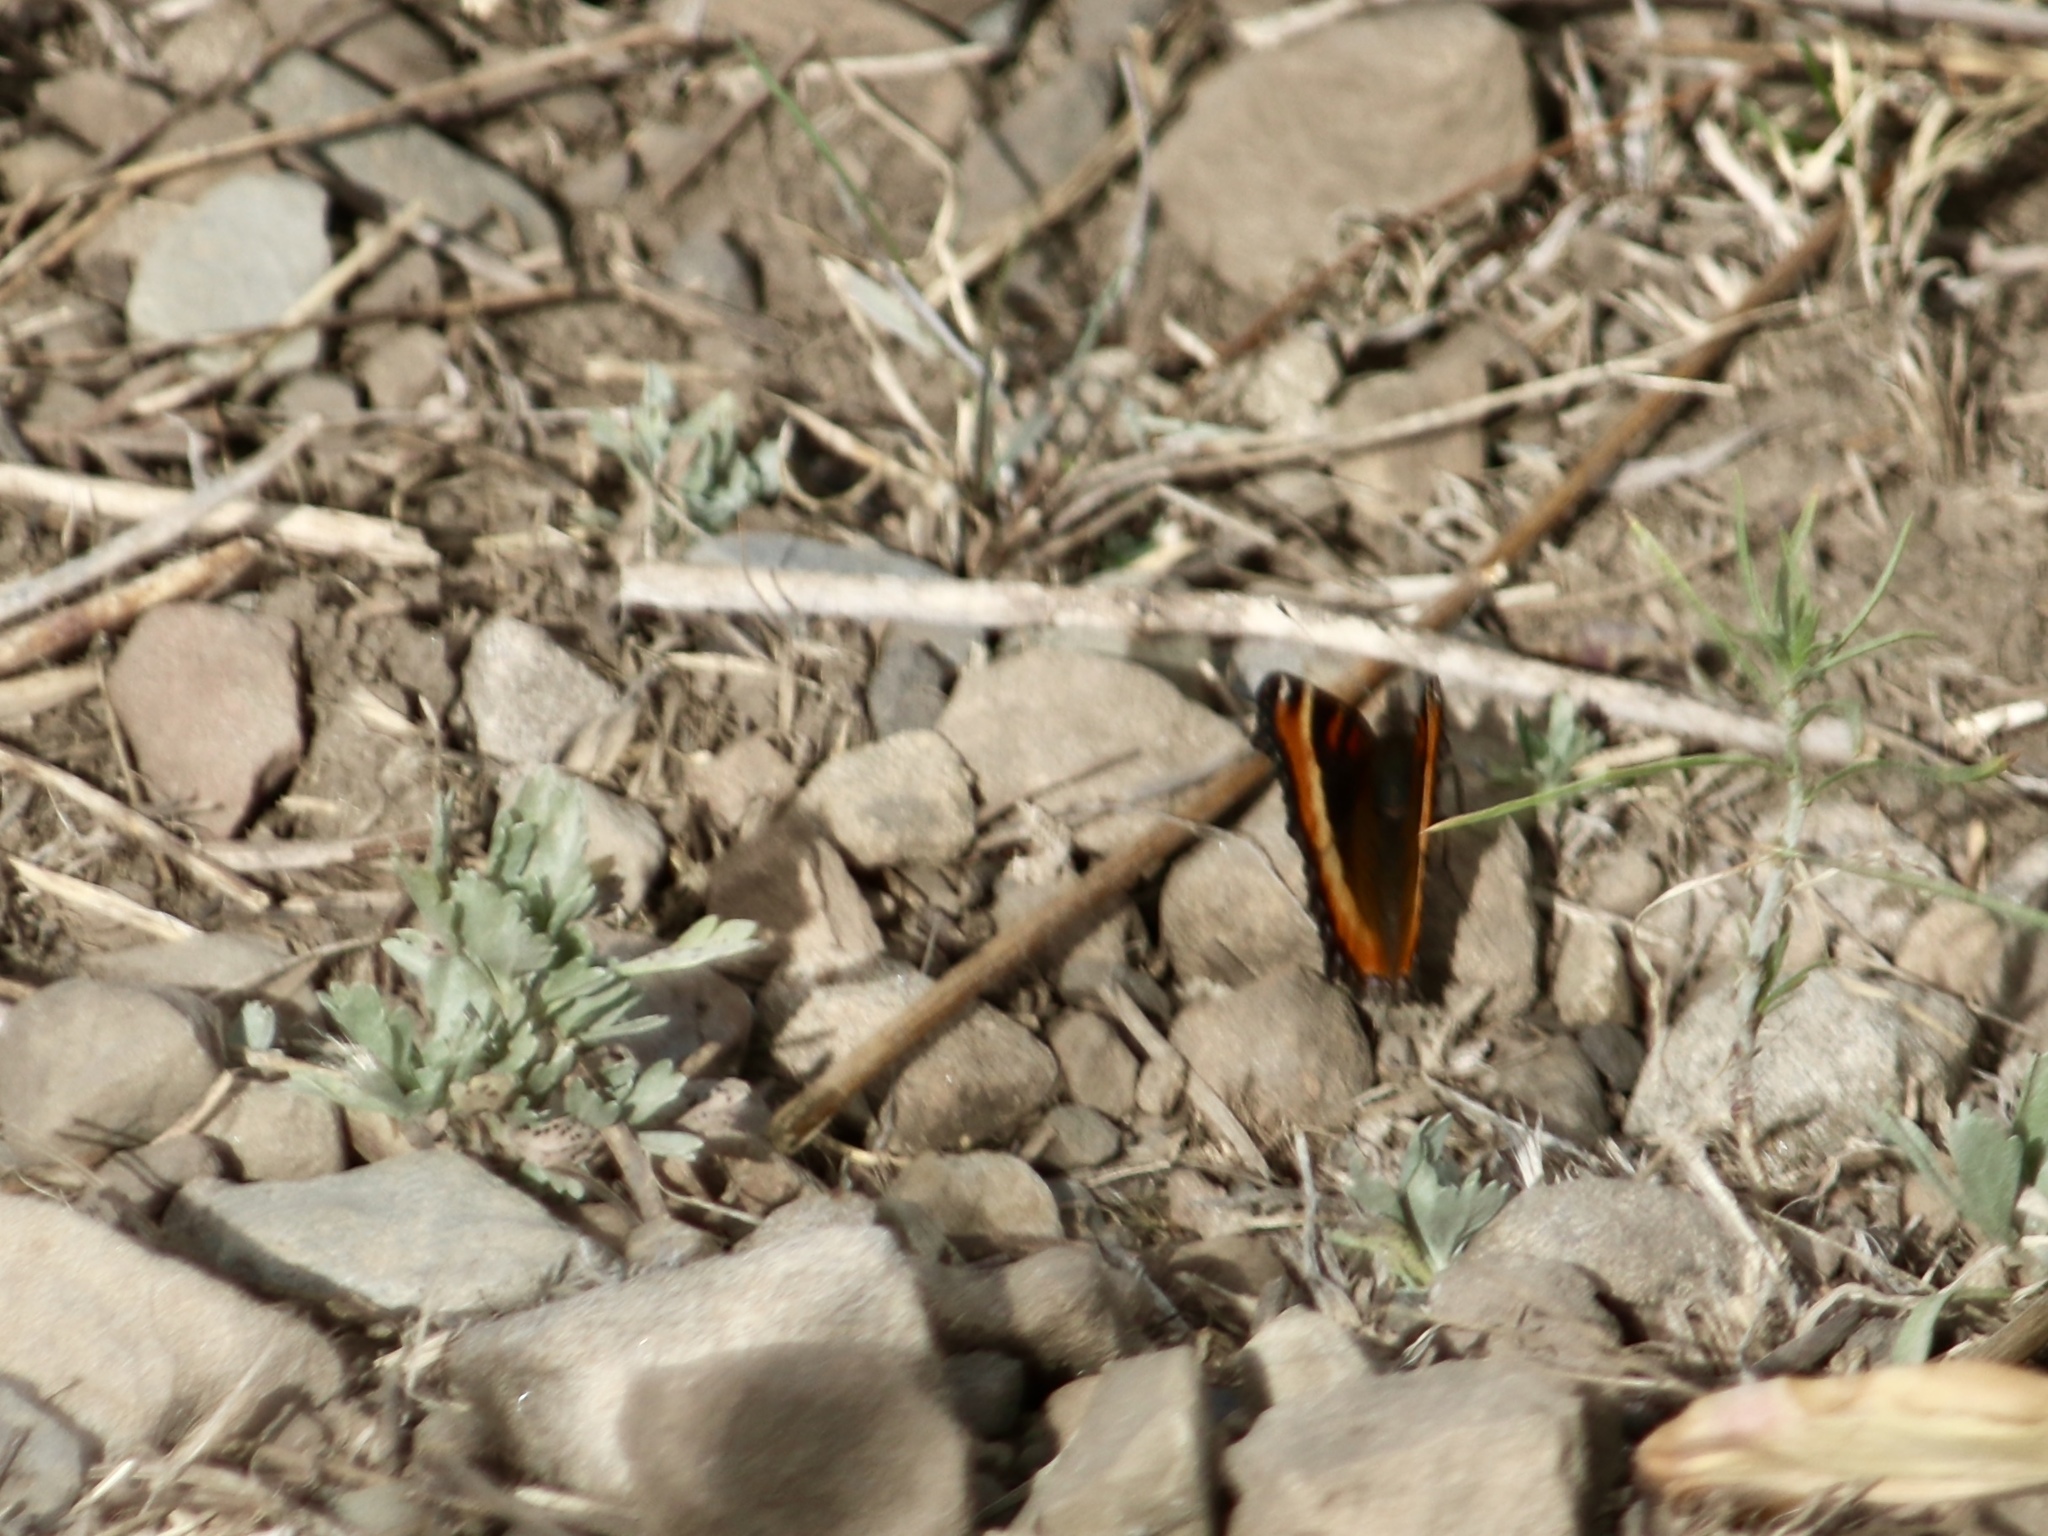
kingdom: Animalia
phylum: Arthropoda
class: Insecta
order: Lepidoptera
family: Nymphalidae
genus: Aglais
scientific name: Aglais milberti
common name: Milbert's tortoiseshell
